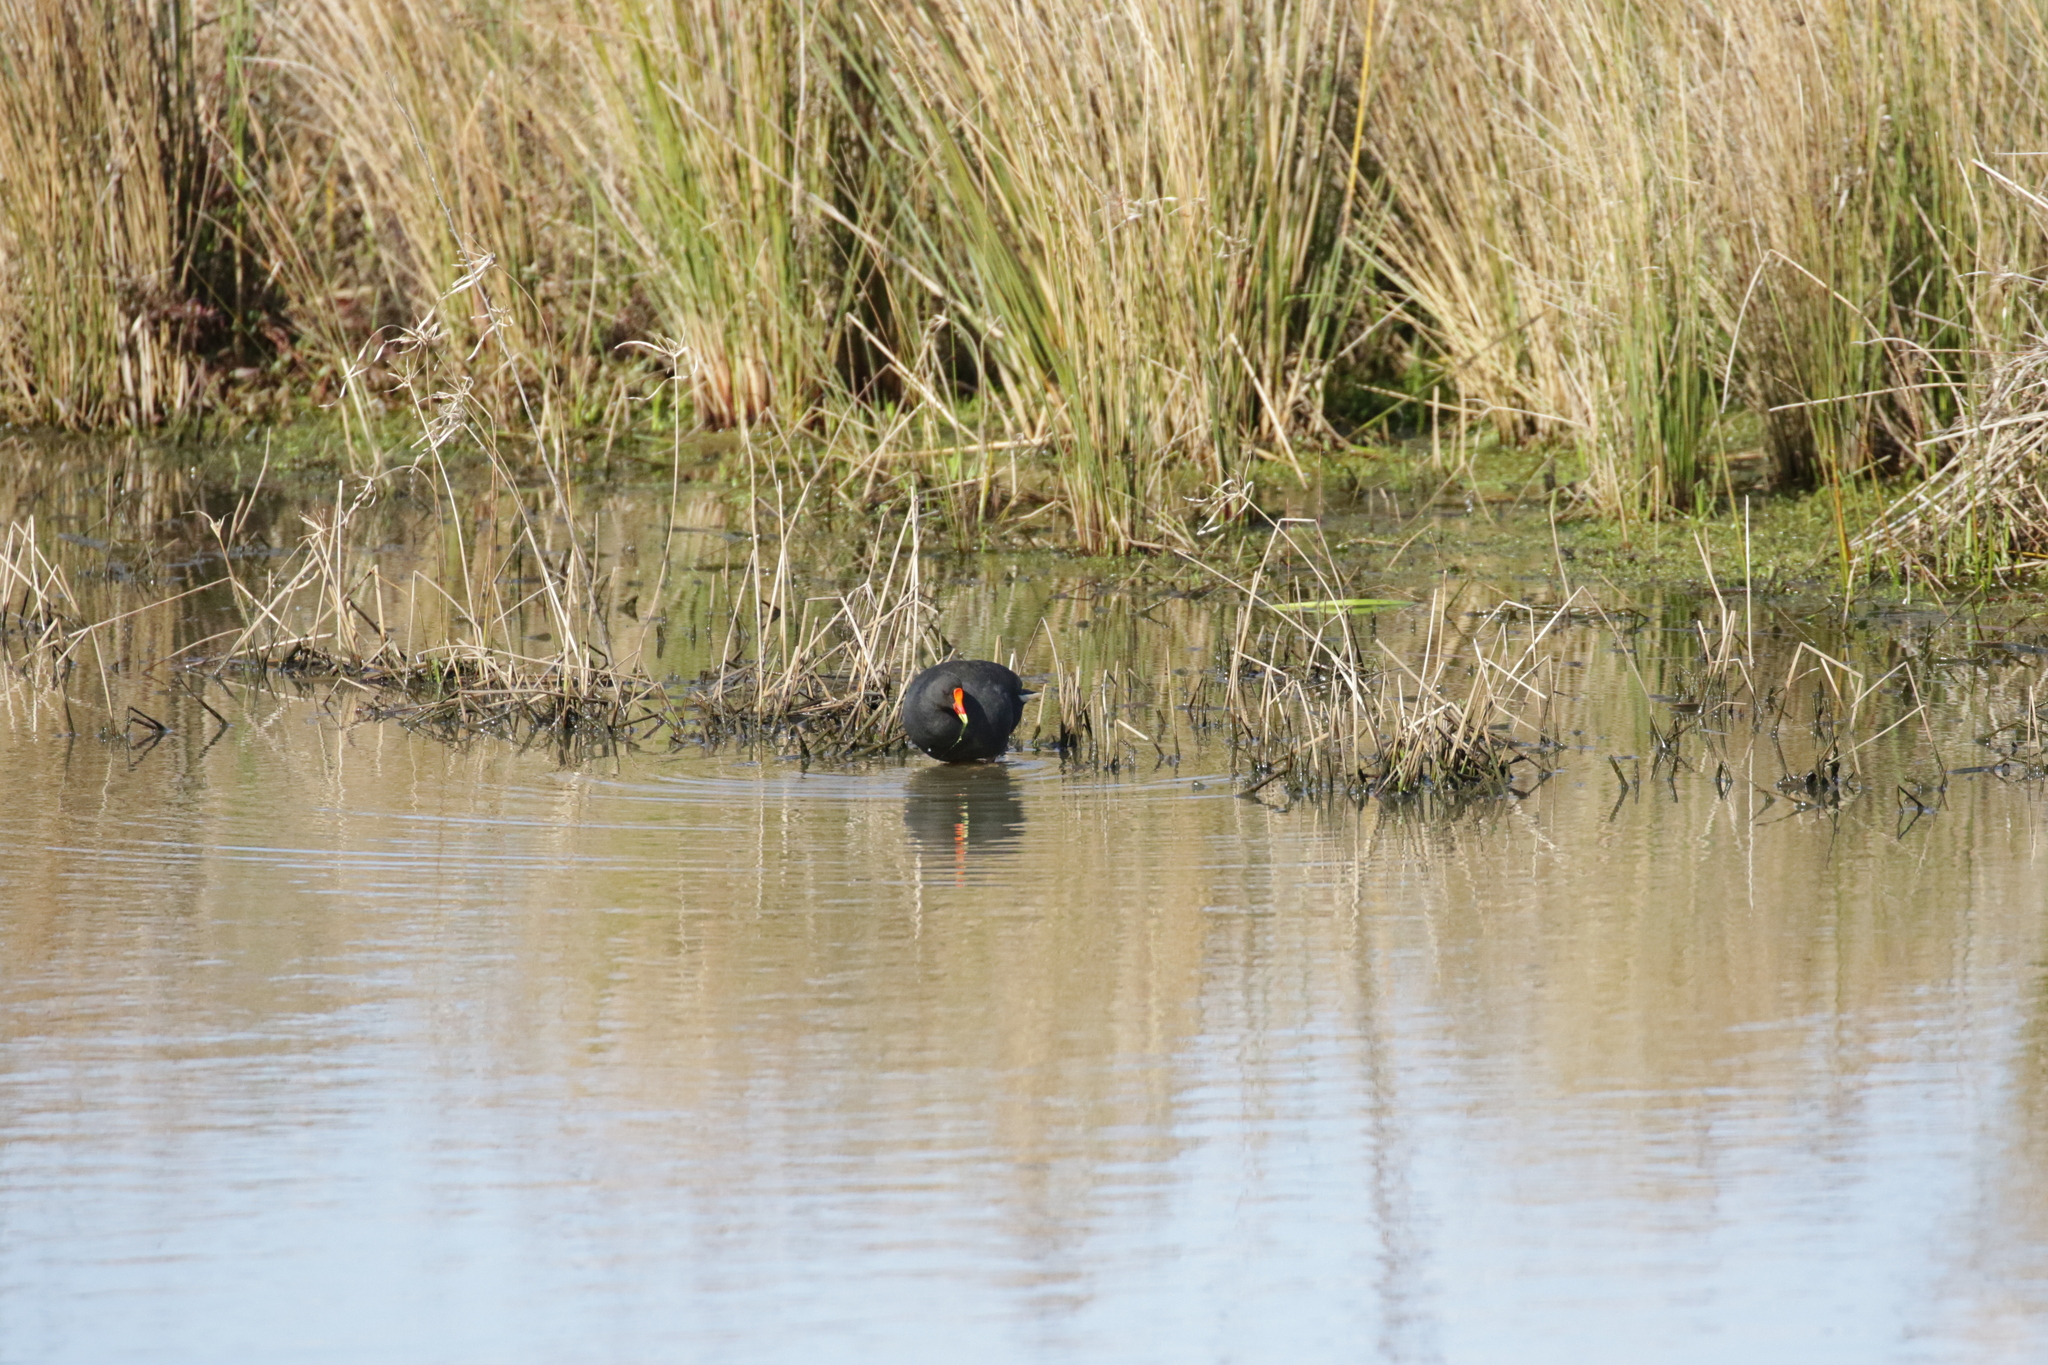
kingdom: Animalia
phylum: Chordata
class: Aves
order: Gruiformes
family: Rallidae
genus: Gallinula
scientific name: Gallinula tenebrosa
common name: Dusky moorhen
